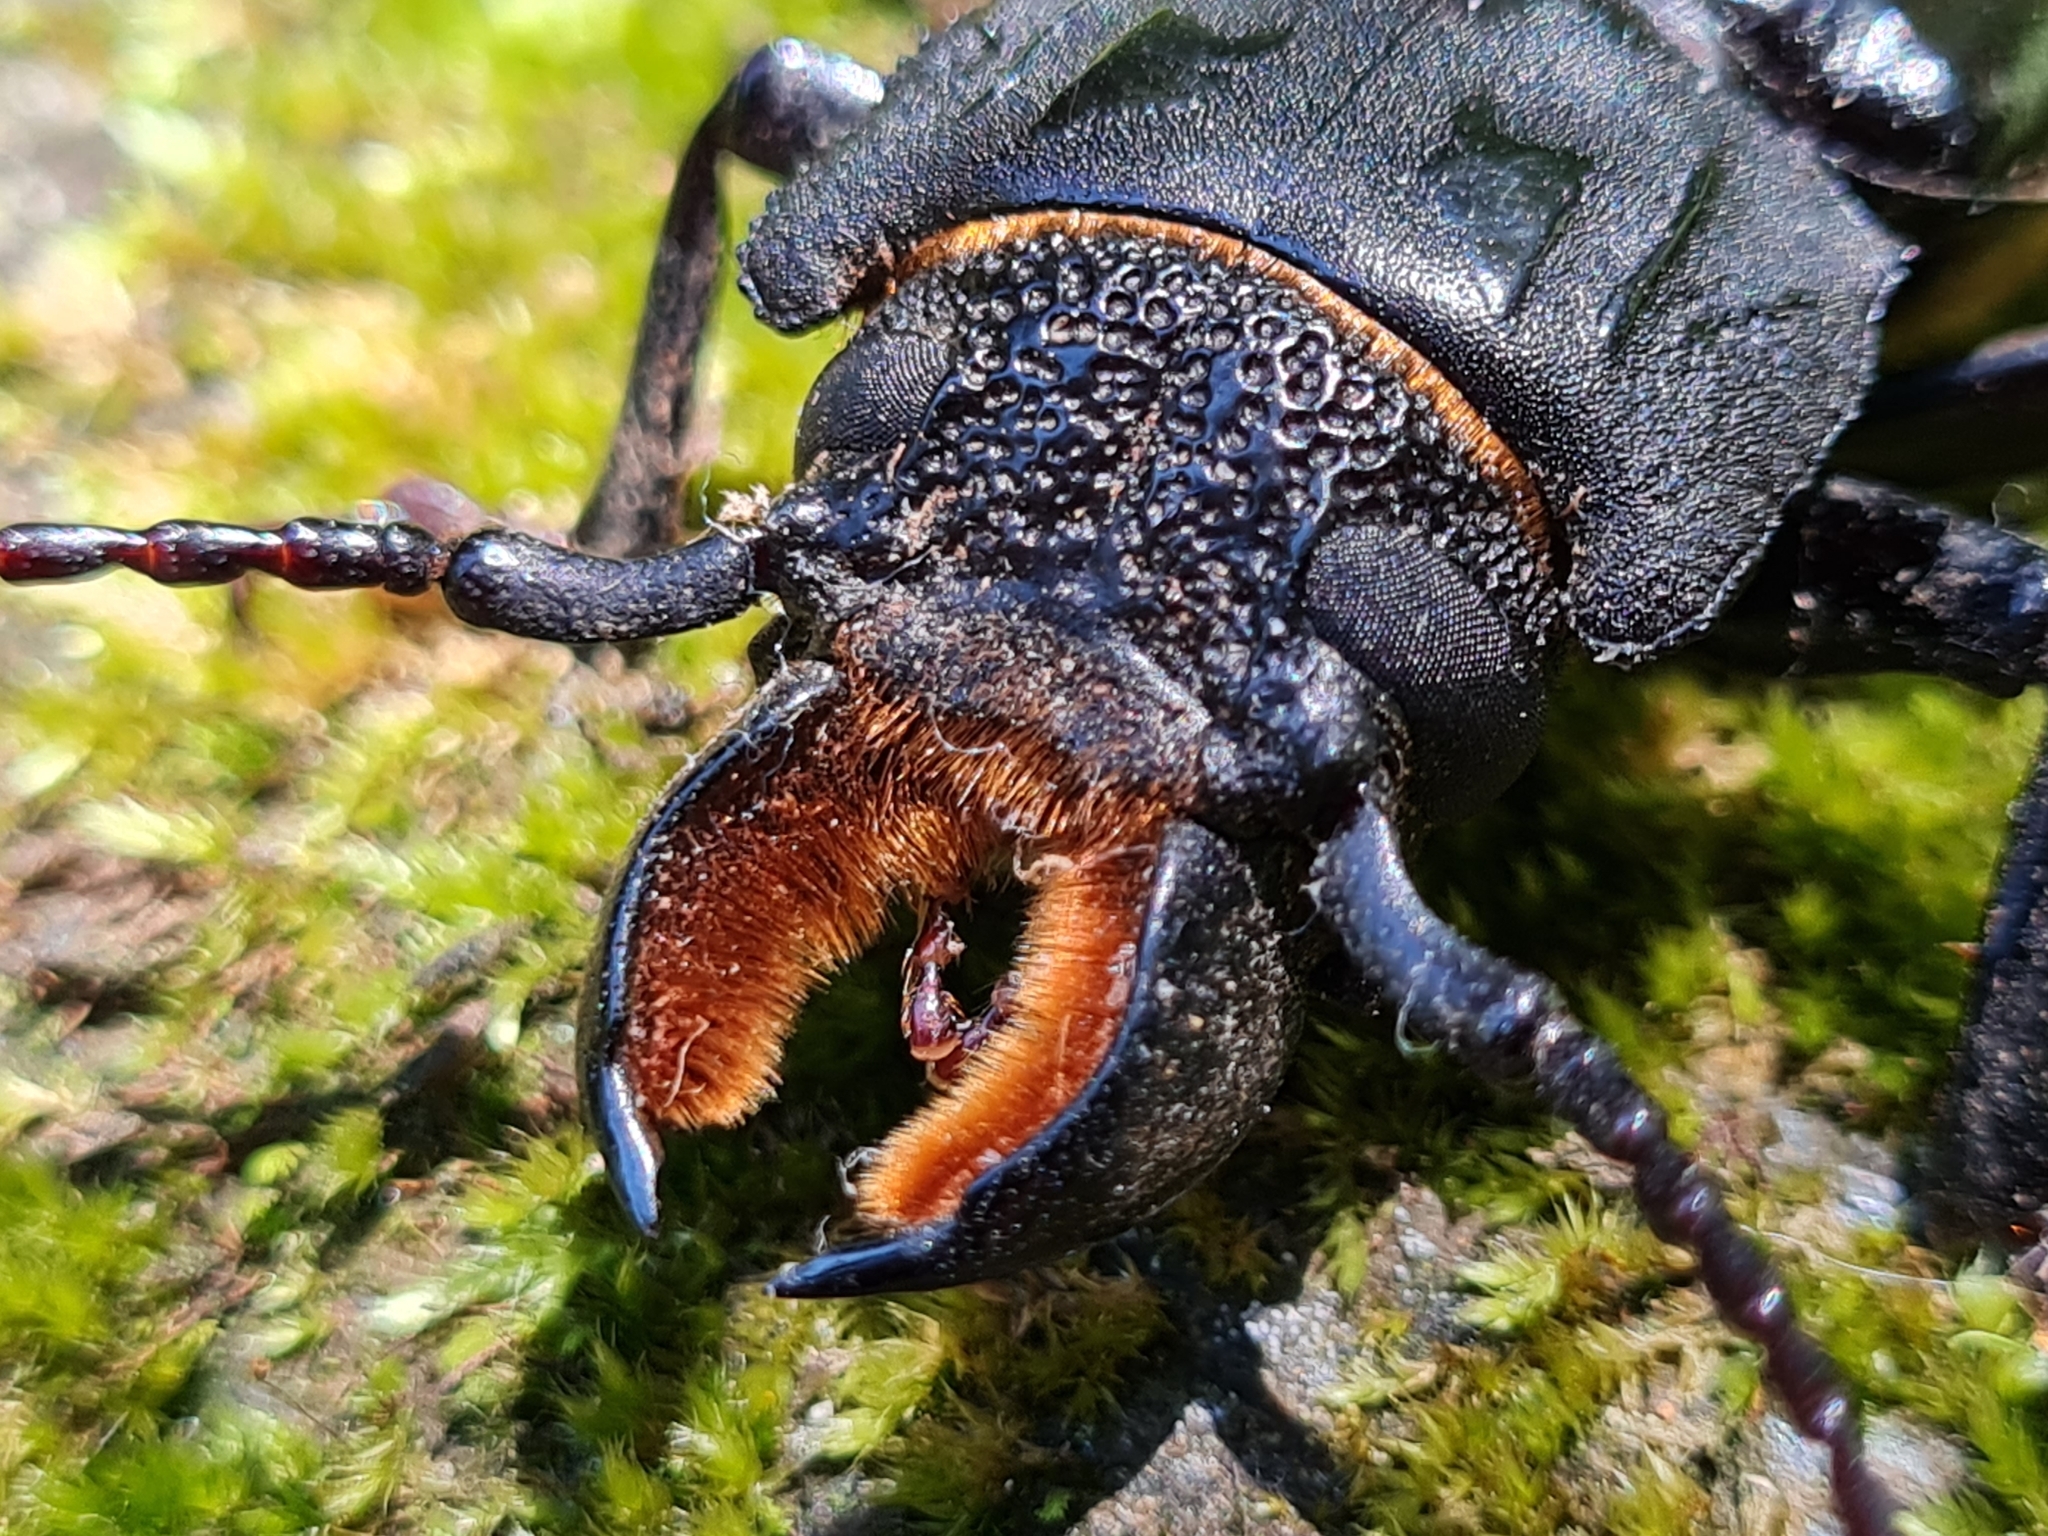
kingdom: Animalia
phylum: Arthropoda
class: Insecta
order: Coleoptera
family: Cerambycidae
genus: Mallodon
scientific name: Mallodon dasystomum
